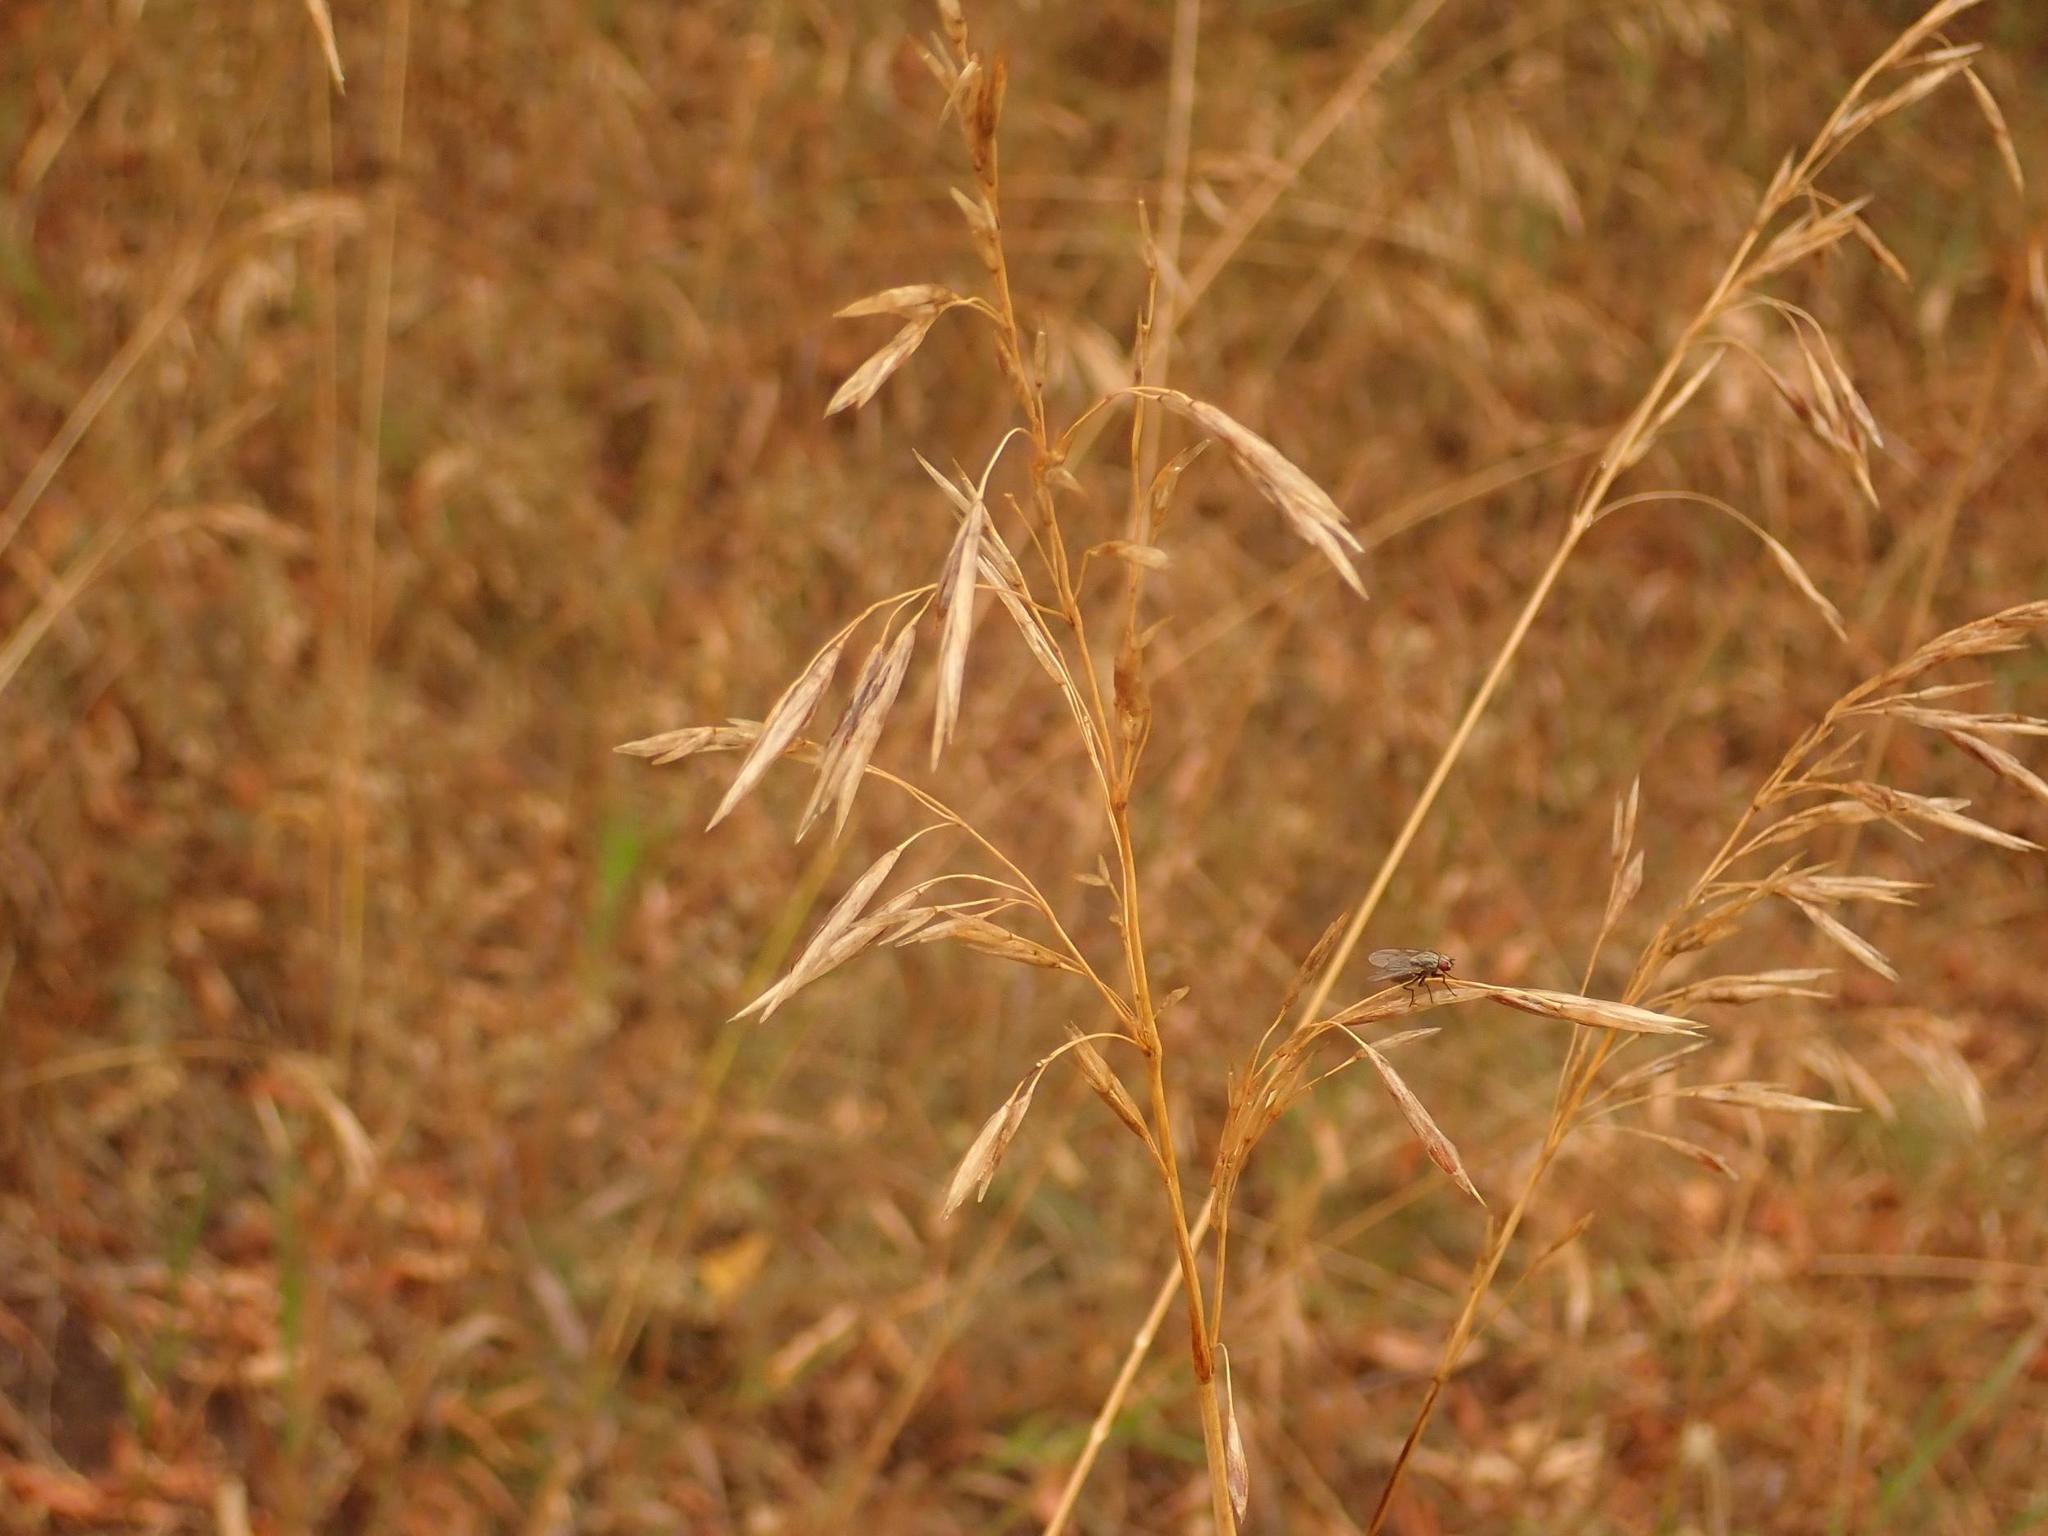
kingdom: Plantae
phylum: Tracheophyta
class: Liliopsida
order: Poales
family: Poaceae
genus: Bromus
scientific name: Bromus inermis
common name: Smooth brome
